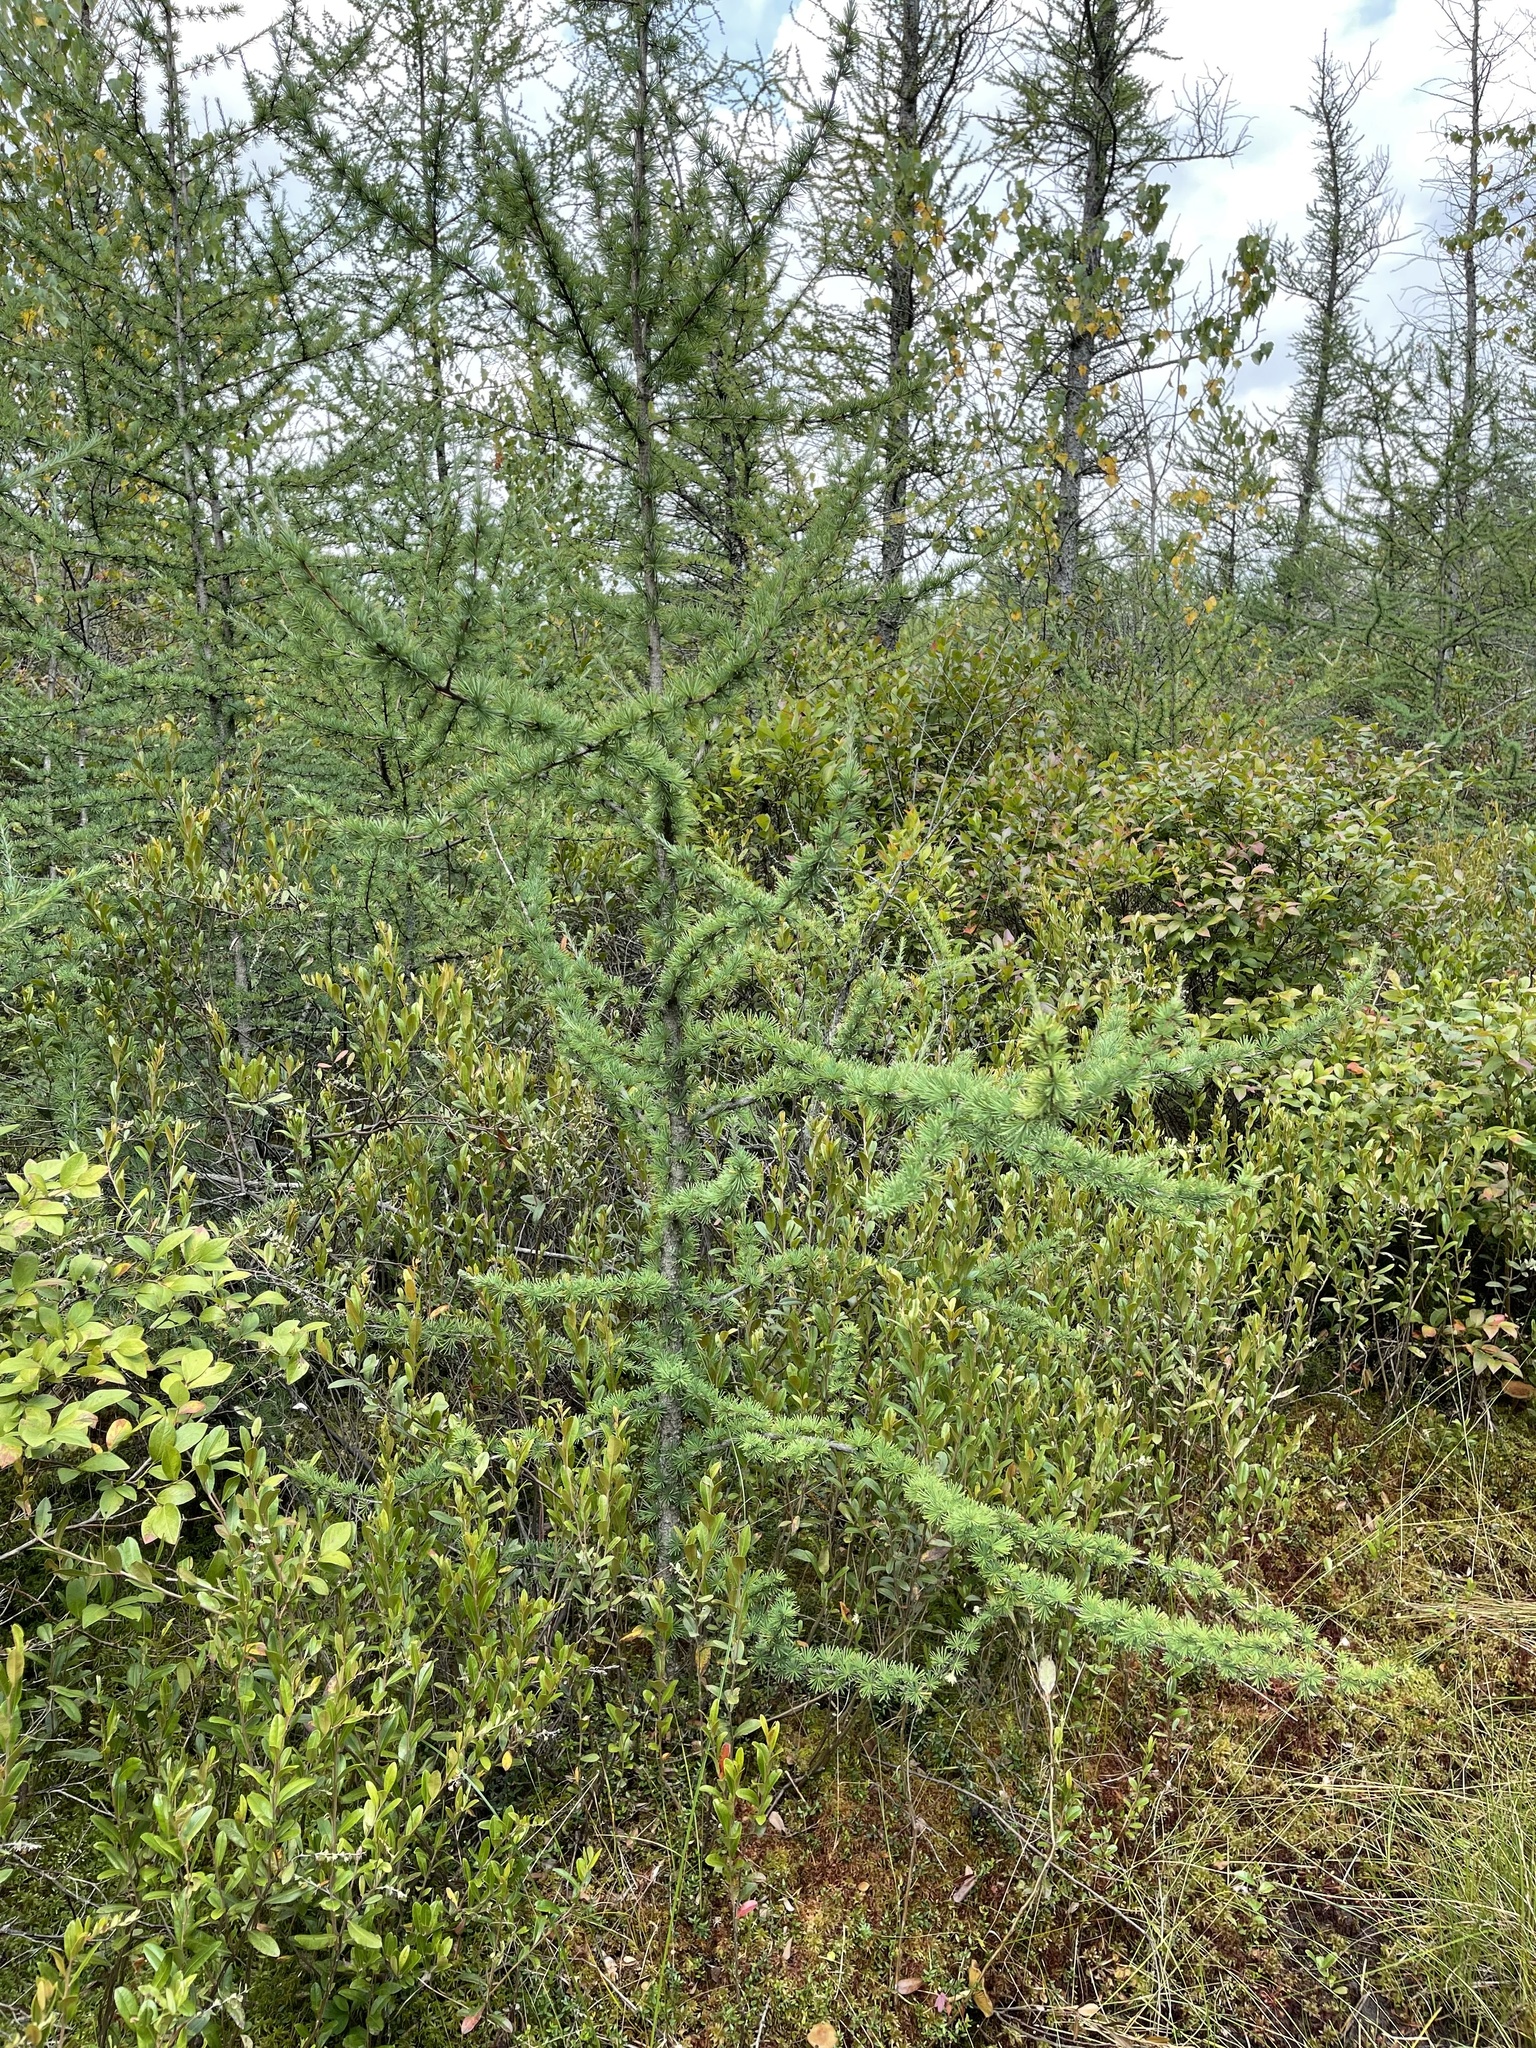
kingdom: Plantae
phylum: Tracheophyta
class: Pinopsida
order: Pinales
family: Pinaceae
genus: Larix
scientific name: Larix laricina
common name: American larch
